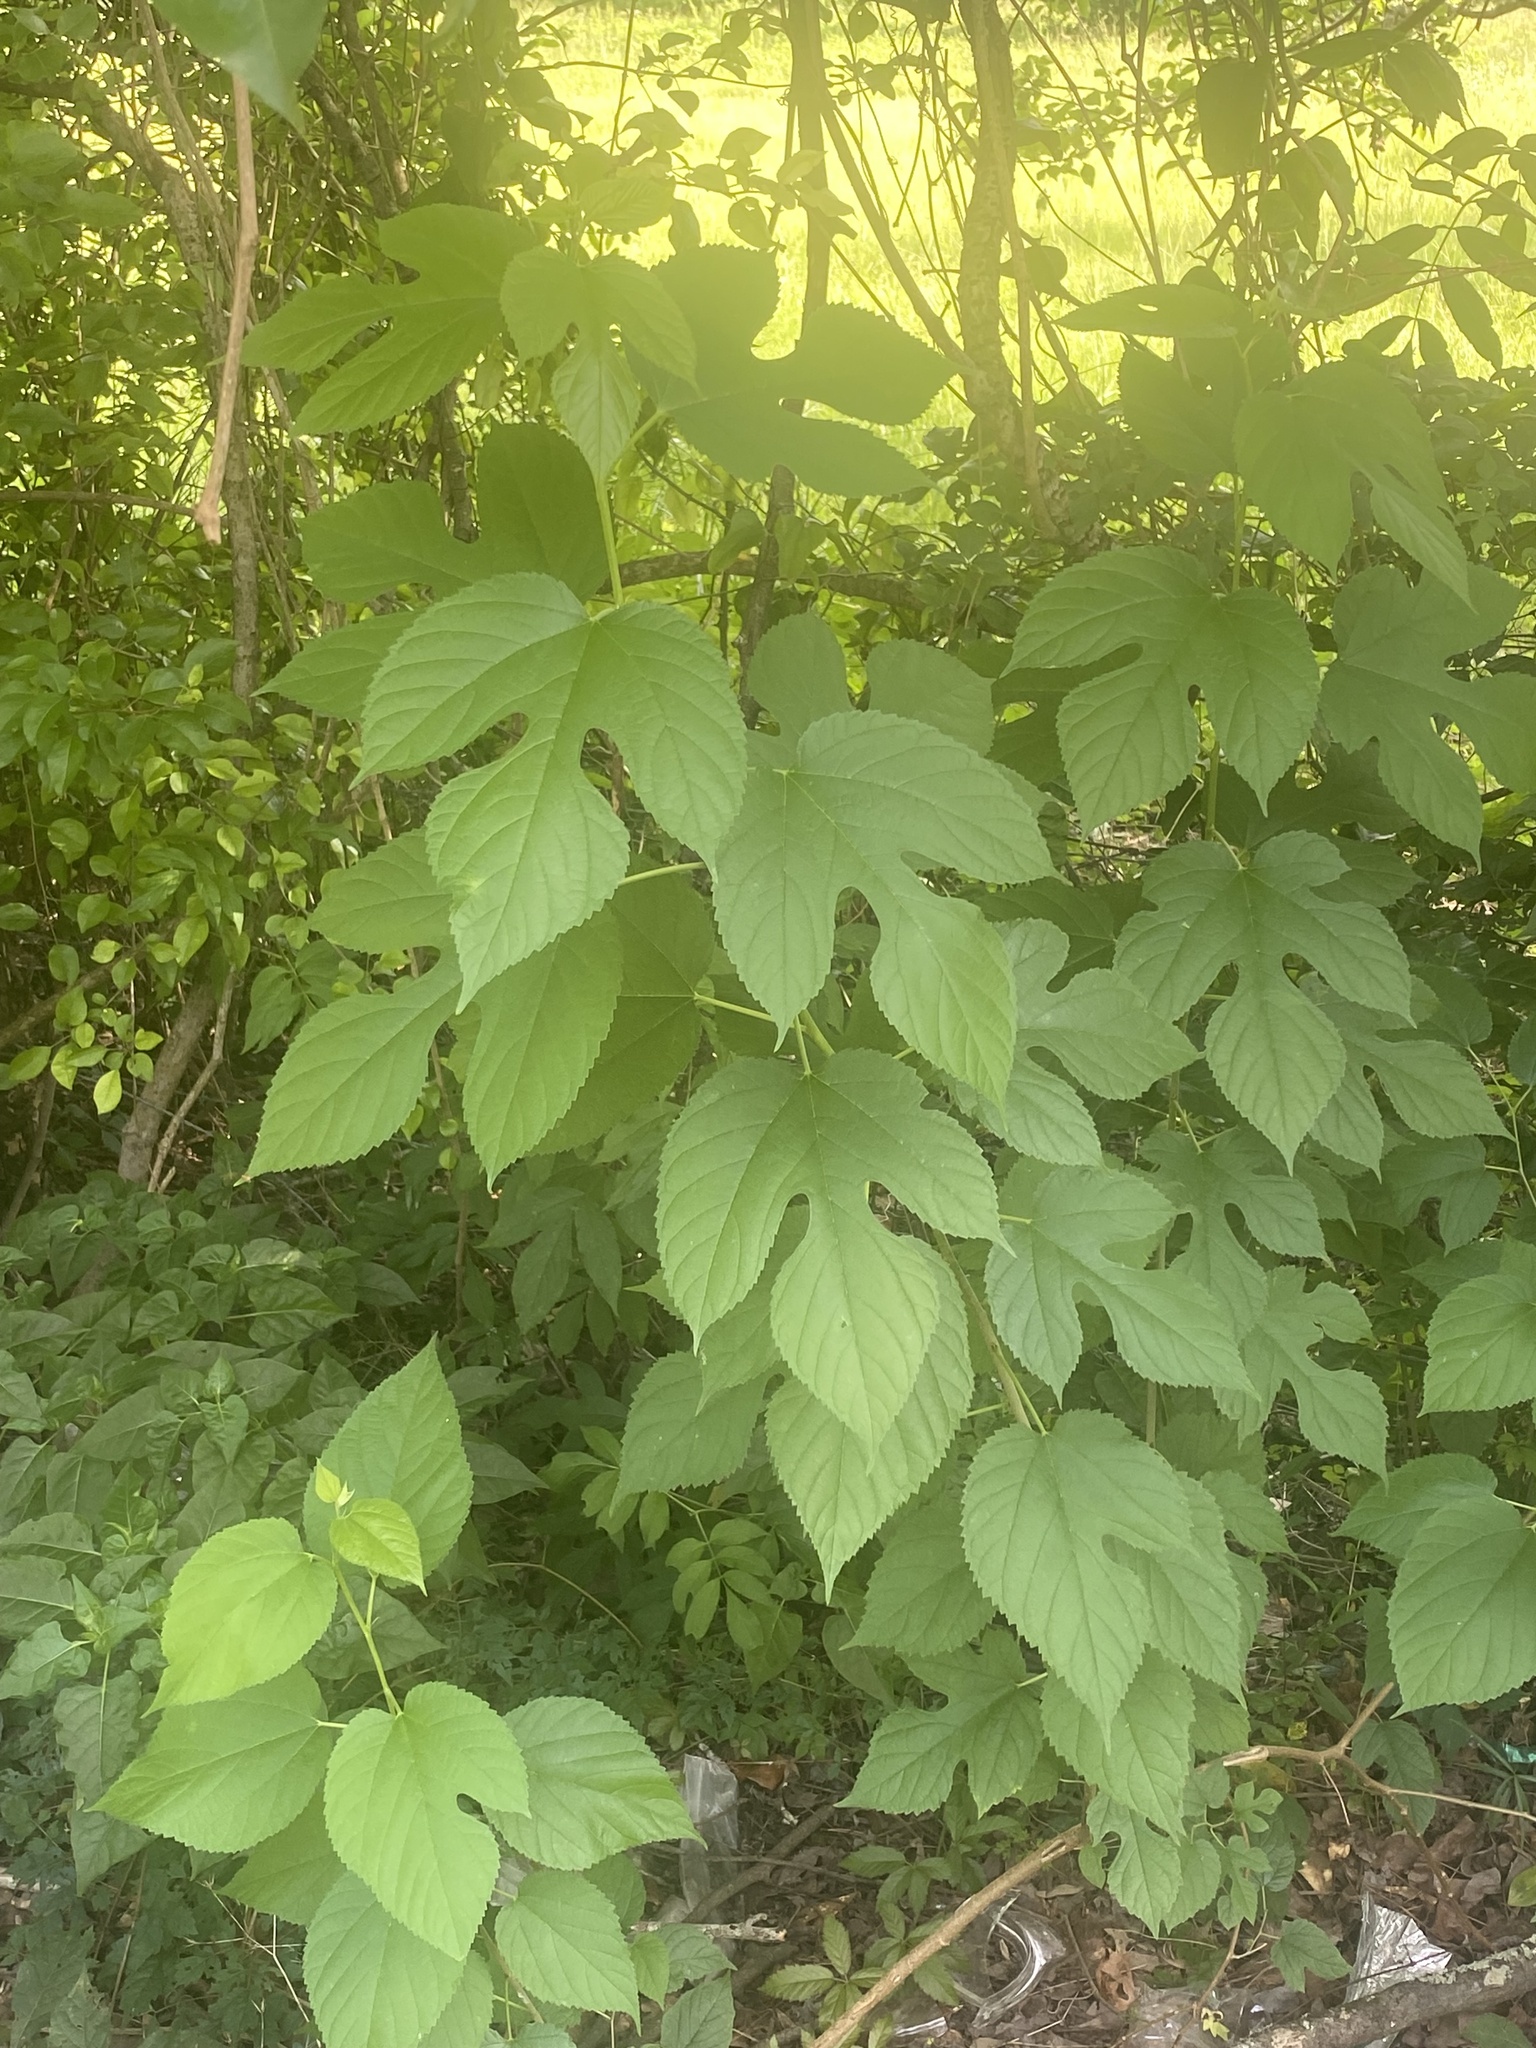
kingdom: Plantae
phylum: Tracheophyta
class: Magnoliopsida
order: Asterales
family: Asteraceae
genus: Ambrosia
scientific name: Ambrosia trifida
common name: Giant ragweed
